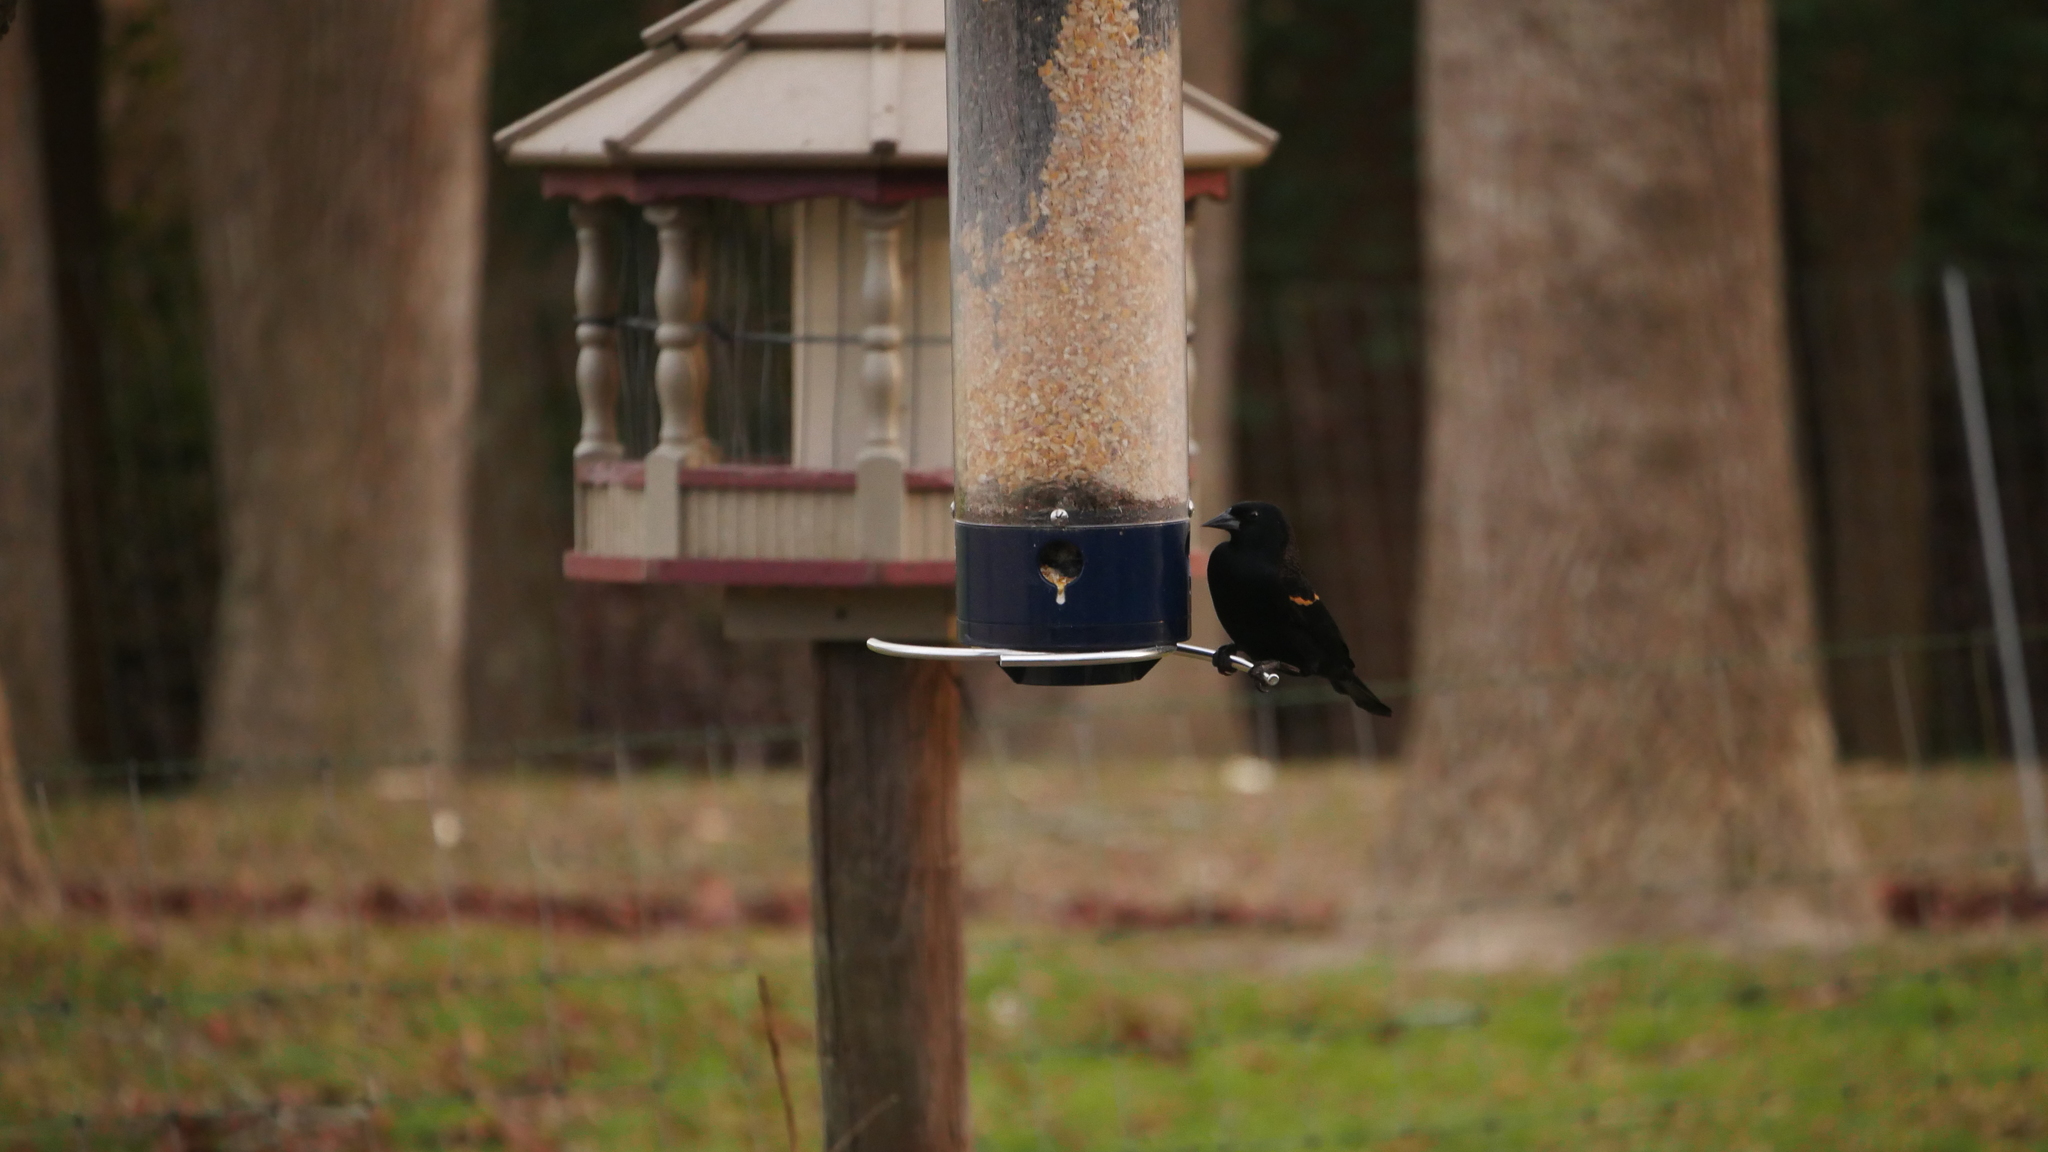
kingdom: Animalia
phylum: Chordata
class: Aves
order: Passeriformes
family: Icteridae
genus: Agelaius
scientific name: Agelaius phoeniceus
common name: Red-winged blackbird
